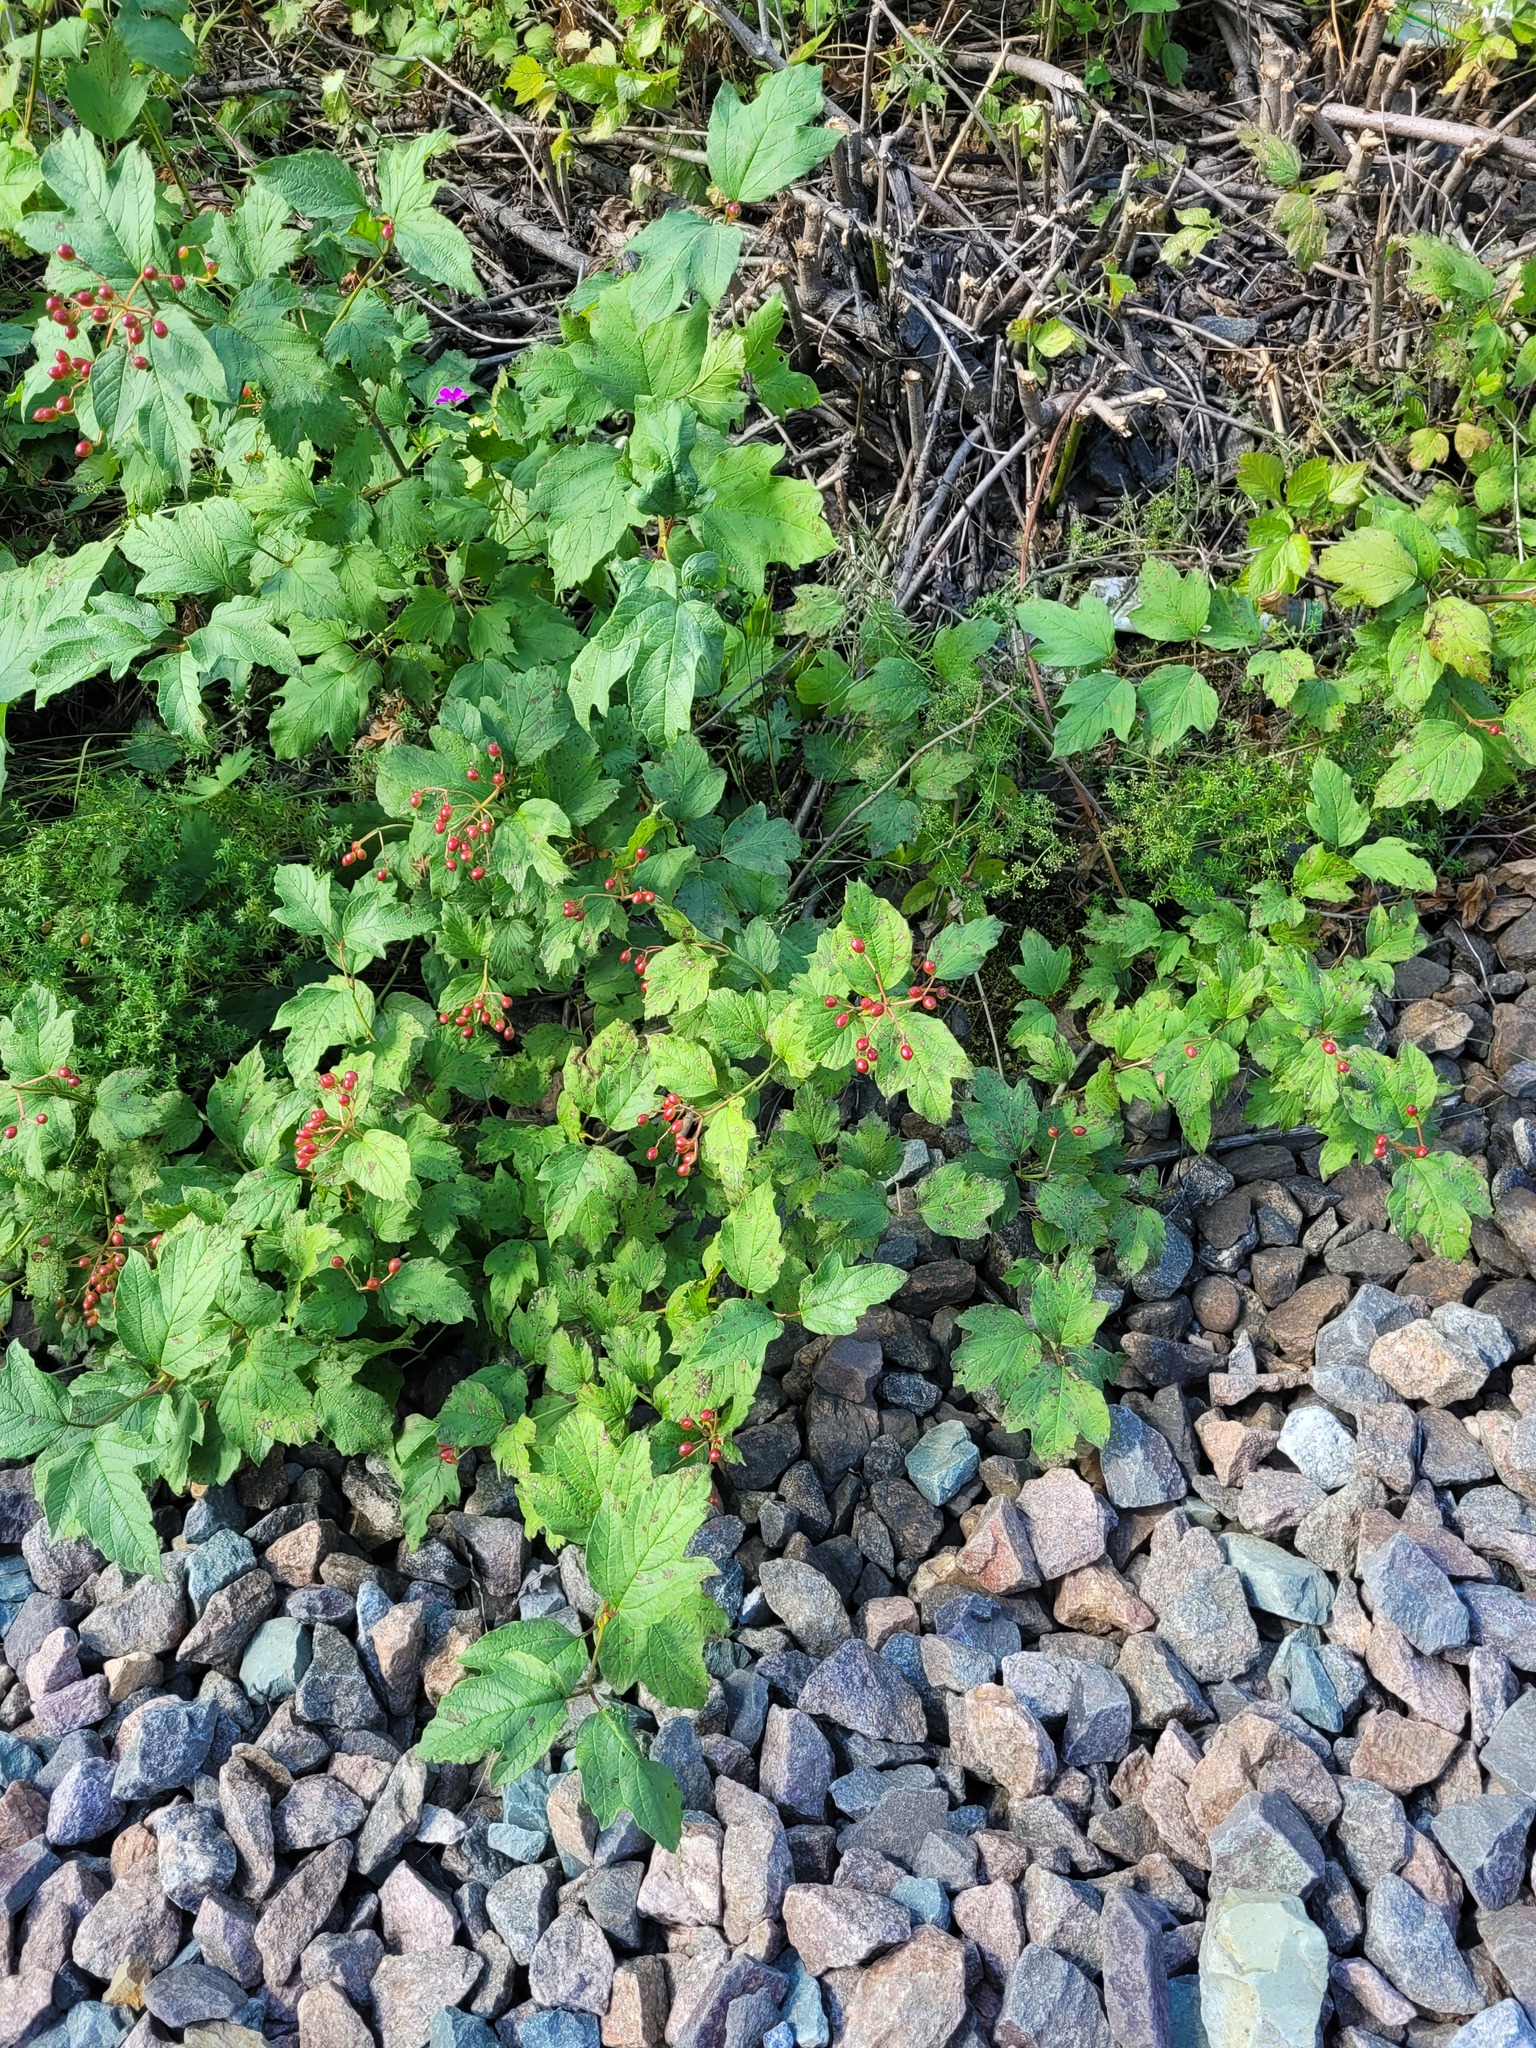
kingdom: Plantae
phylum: Tracheophyta
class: Magnoliopsida
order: Dipsacales
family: Viburnaceae
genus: Viburnum
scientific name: Viburnum opulus
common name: Guelder-rose
